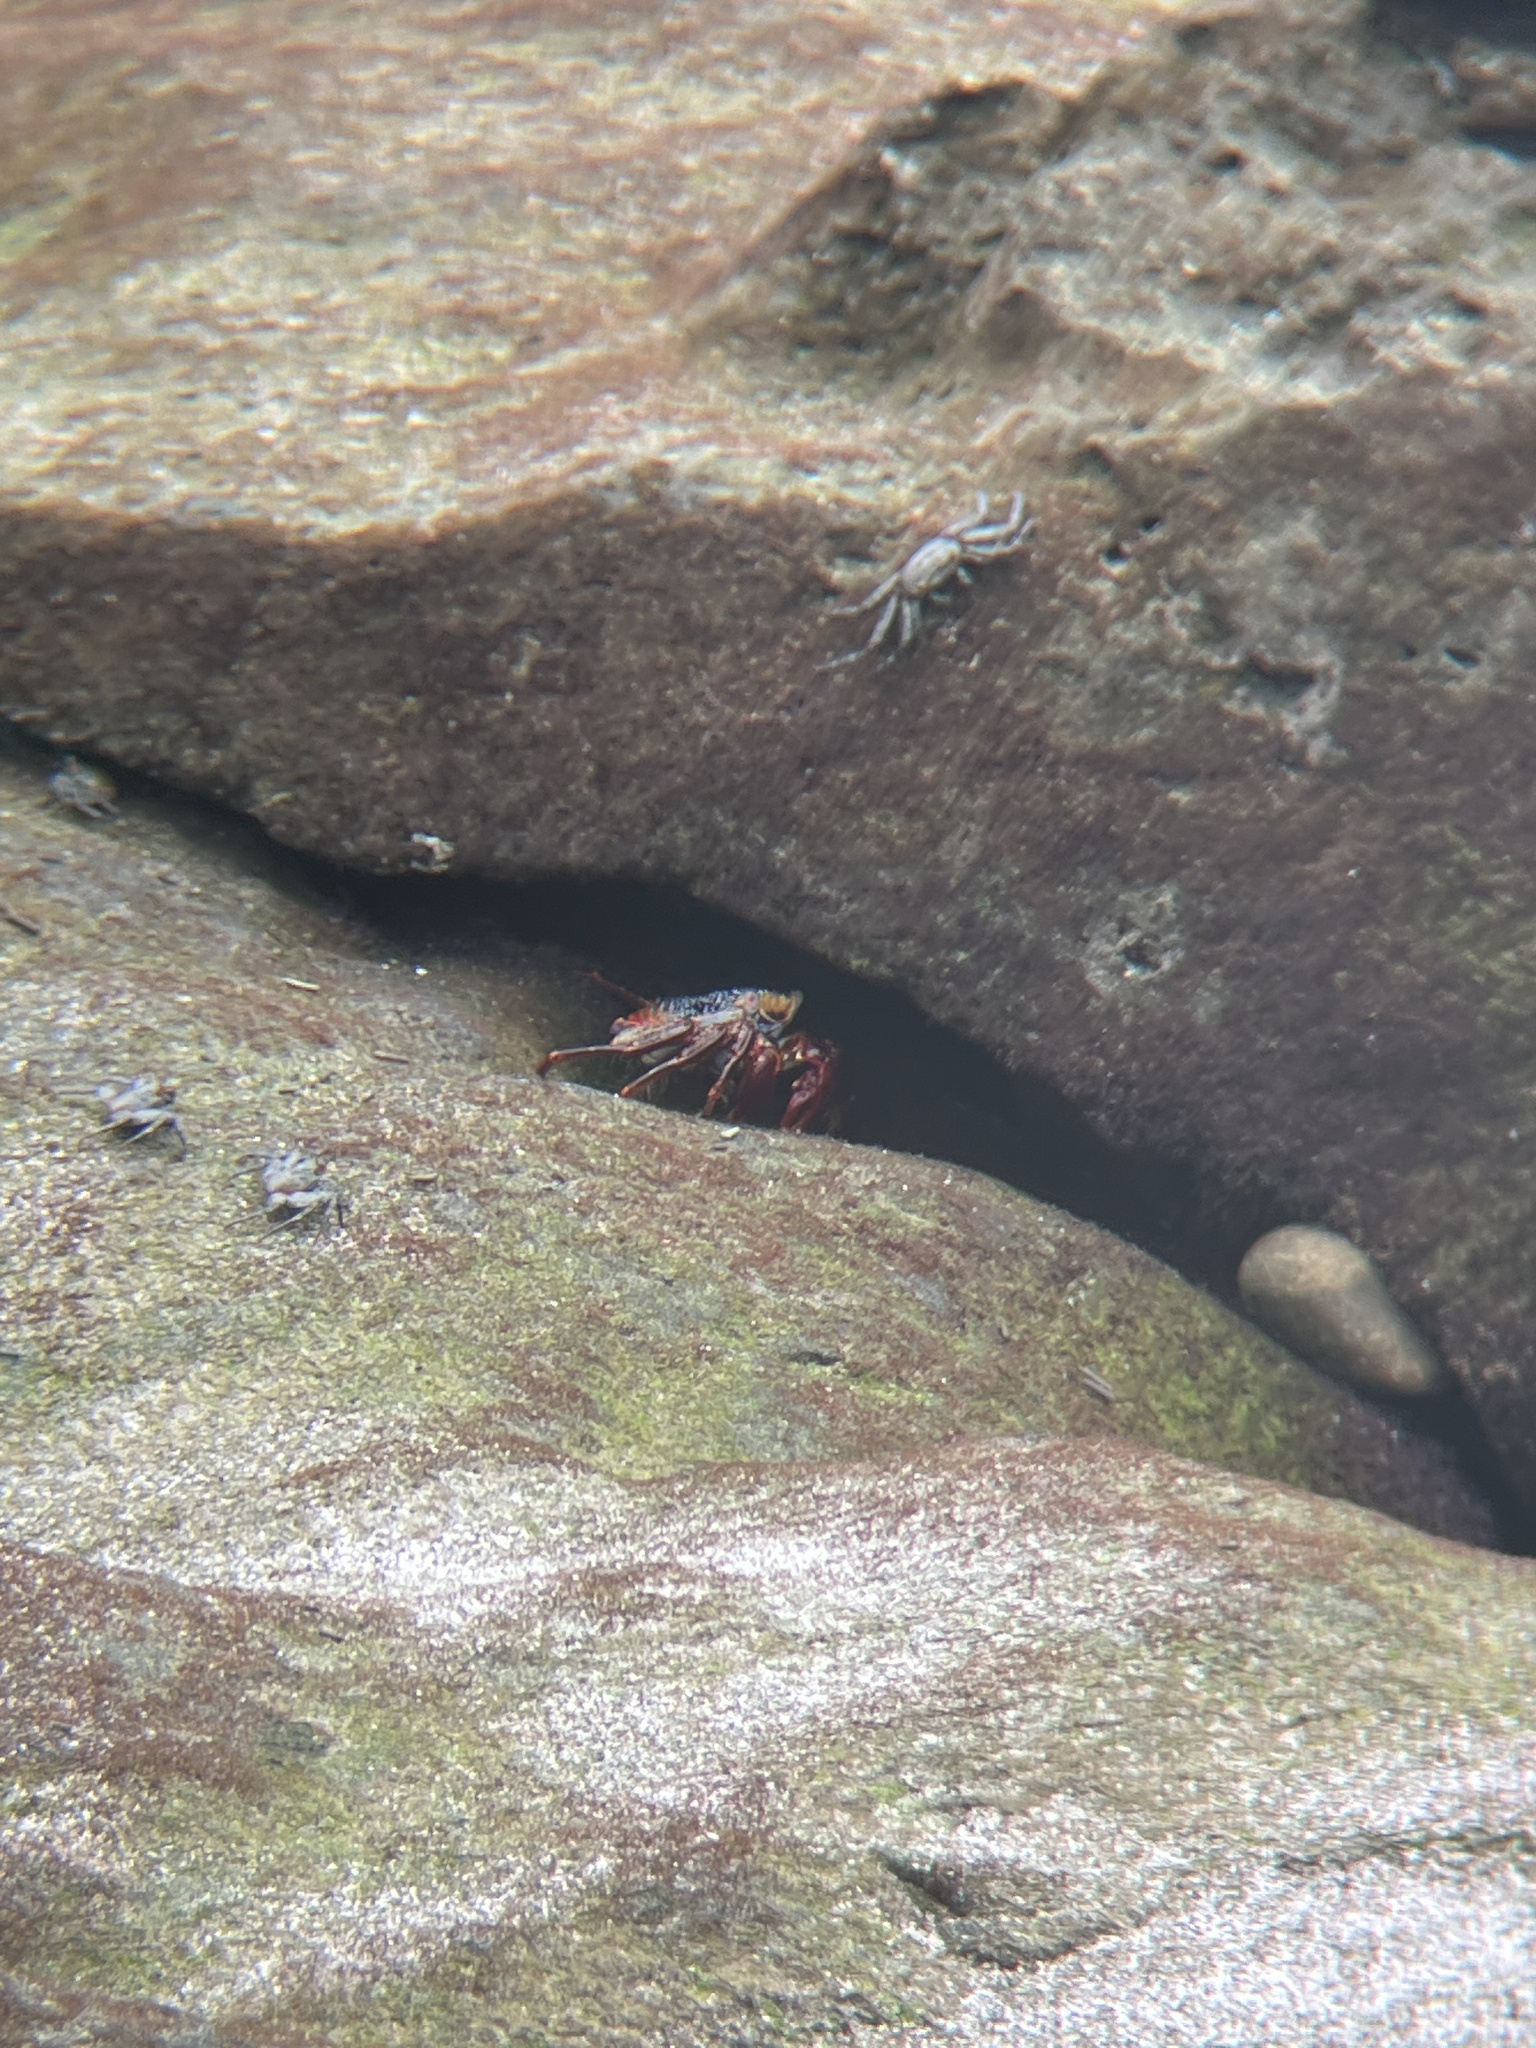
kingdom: Animalia
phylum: Arthropoda
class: Malacostraca
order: Decapoda
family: Grapsidae
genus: Grapsus
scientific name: Grapsus grapsus
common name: Sally lightfoot
